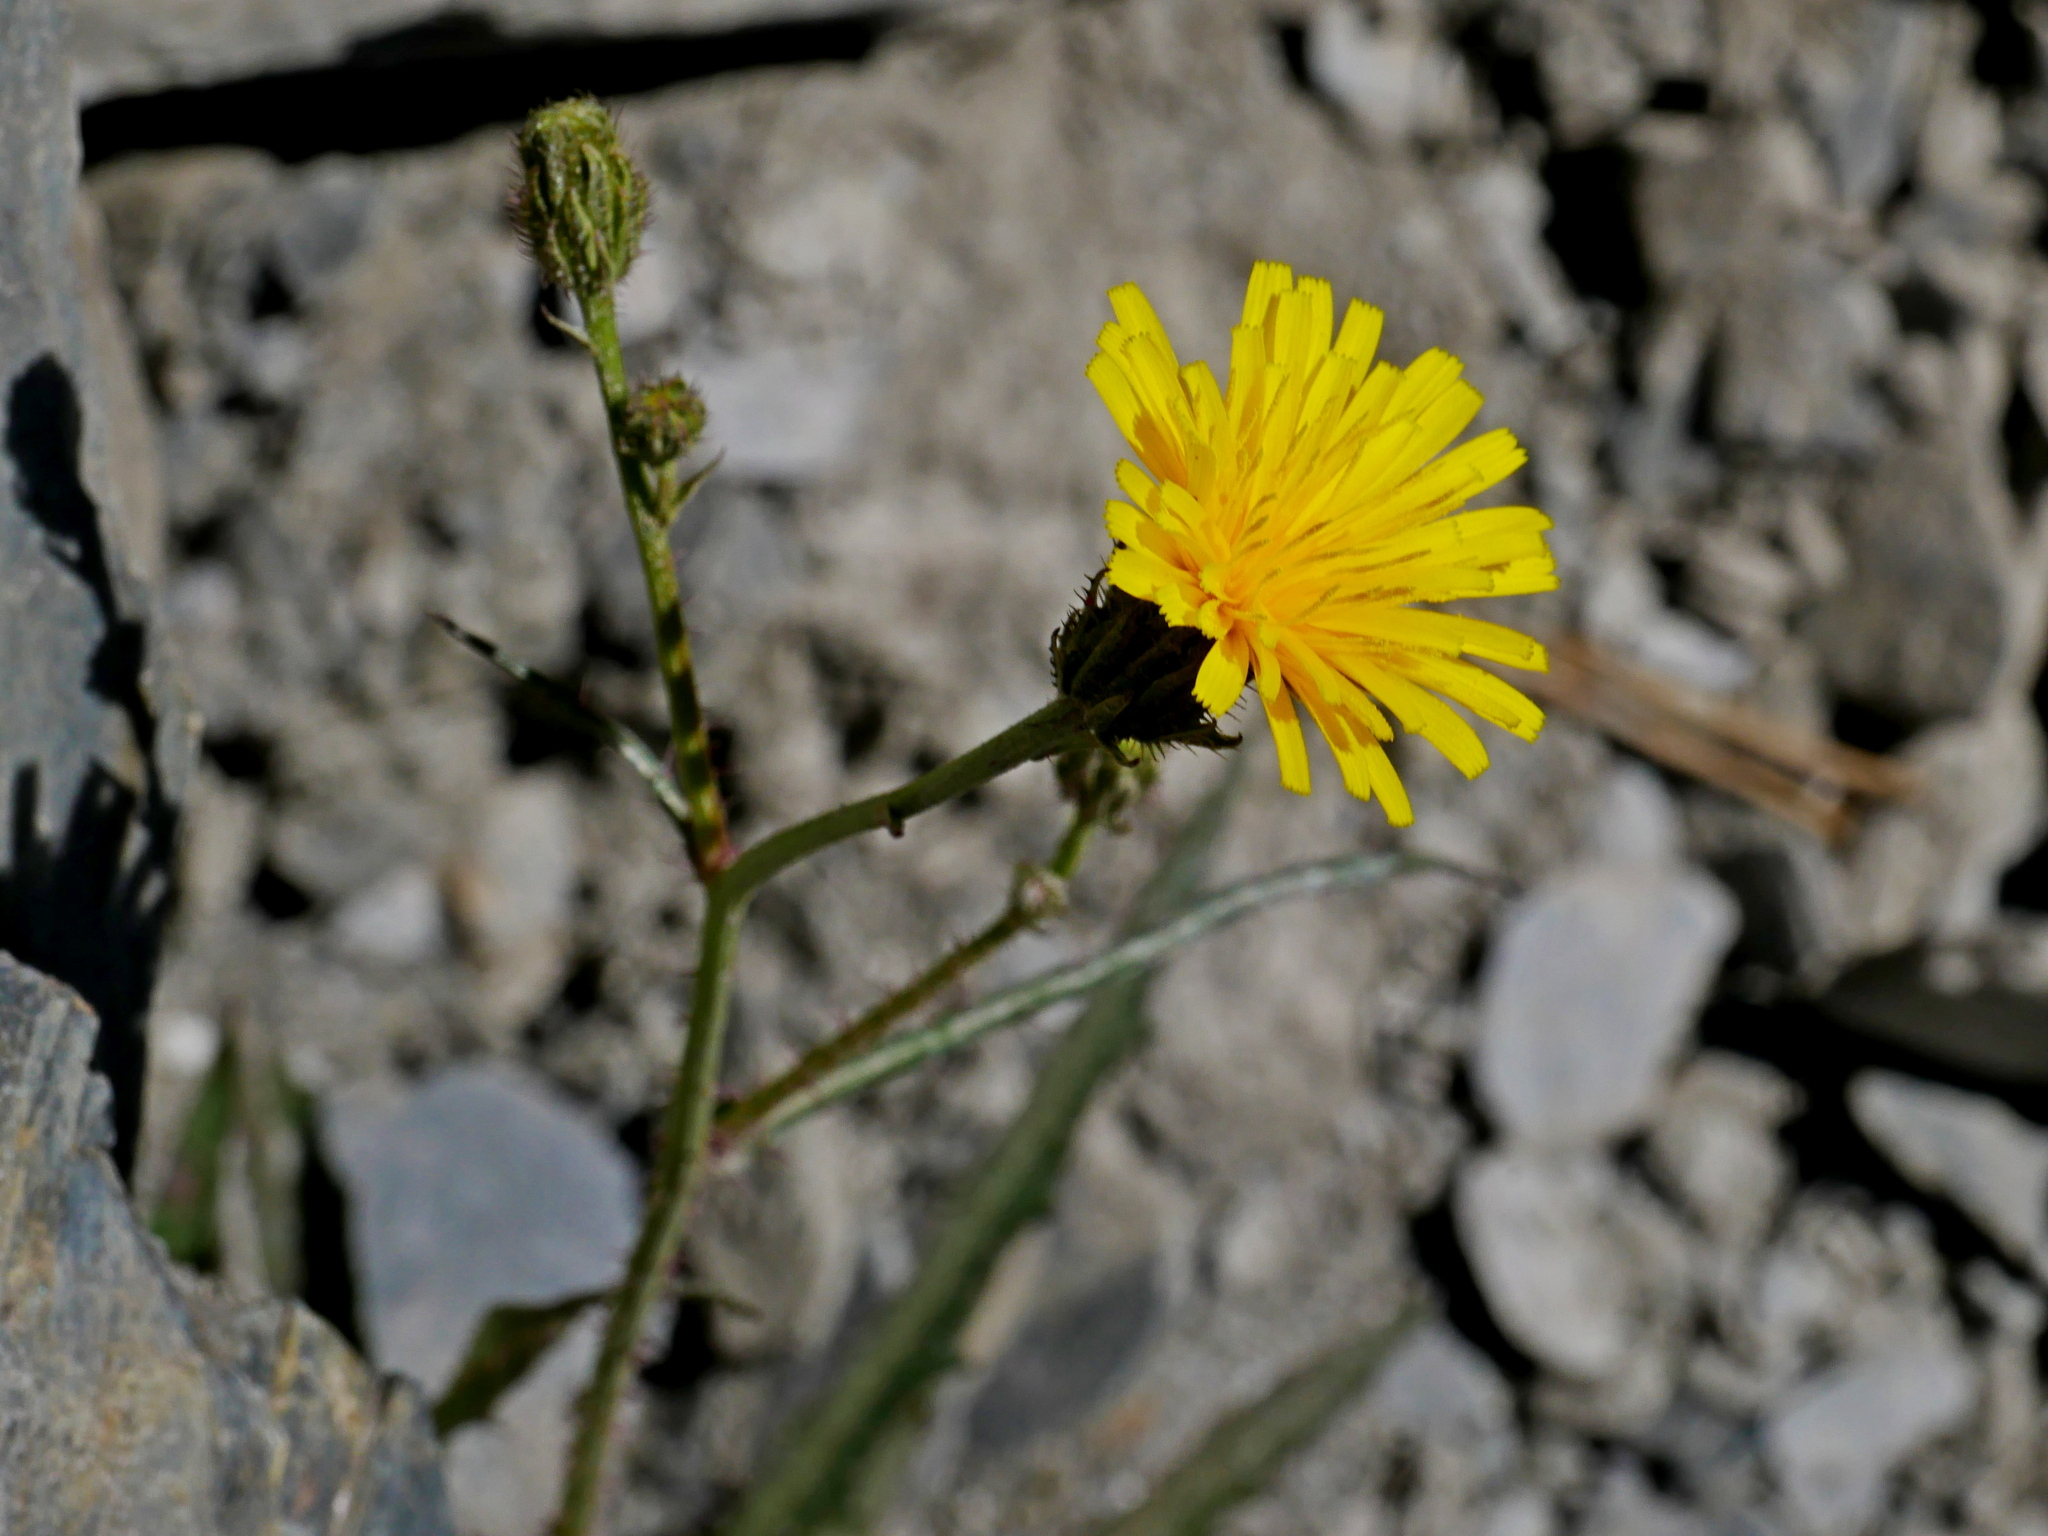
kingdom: Plantae
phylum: Tracheophyta
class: Magnoliopsida
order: Asterales
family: Asteraceae
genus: Picris
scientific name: Picris angustifolia
